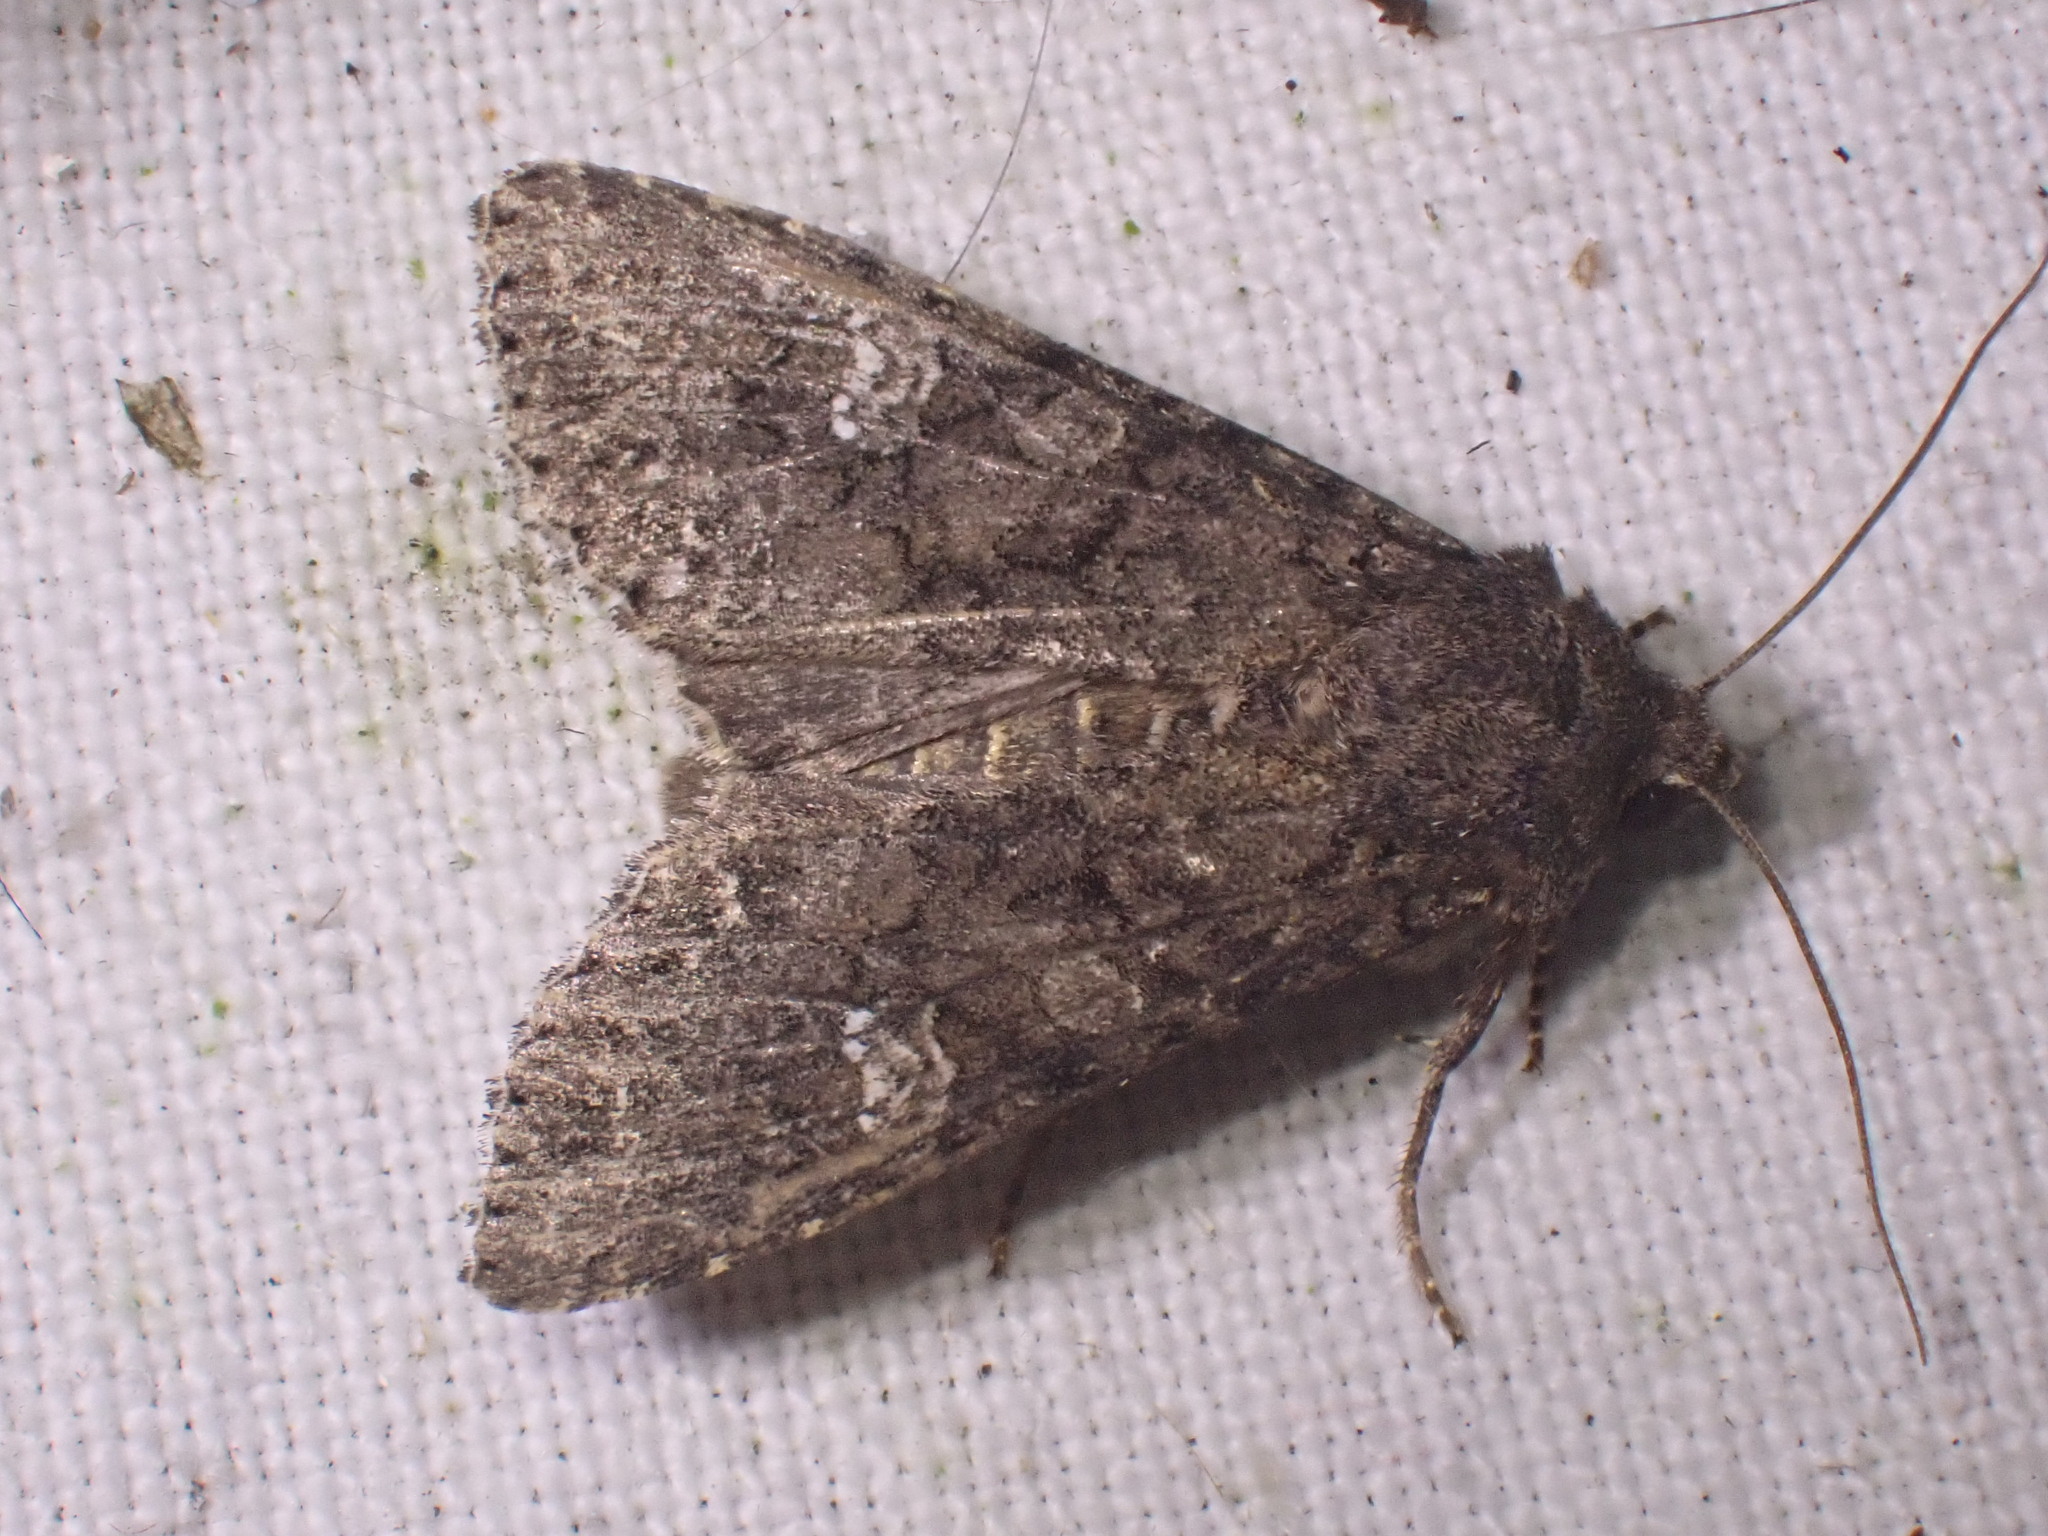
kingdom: Animalia
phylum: Arthropoda
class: Insecta
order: Lepidoptera
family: Noctuidae
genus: Mamestra
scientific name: Mamestra brassicae
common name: Cabbage moth
